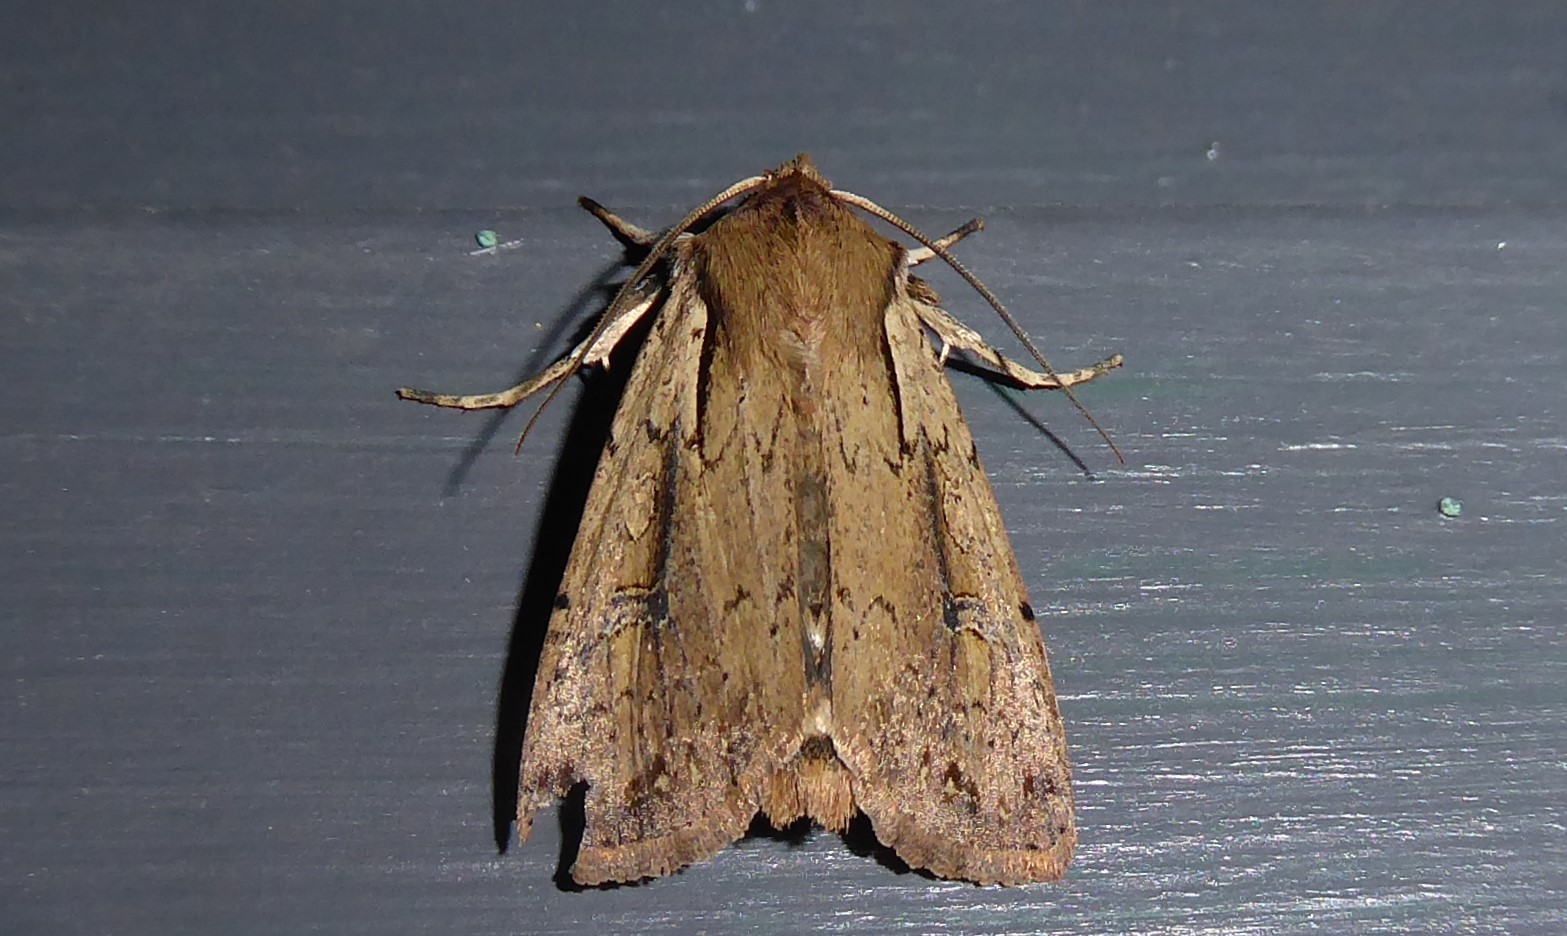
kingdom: Animalia
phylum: Arthropoda
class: Insecta
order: Lepidoptera
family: Noctuidae
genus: Ichneutica
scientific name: Ichneutica atristriga
